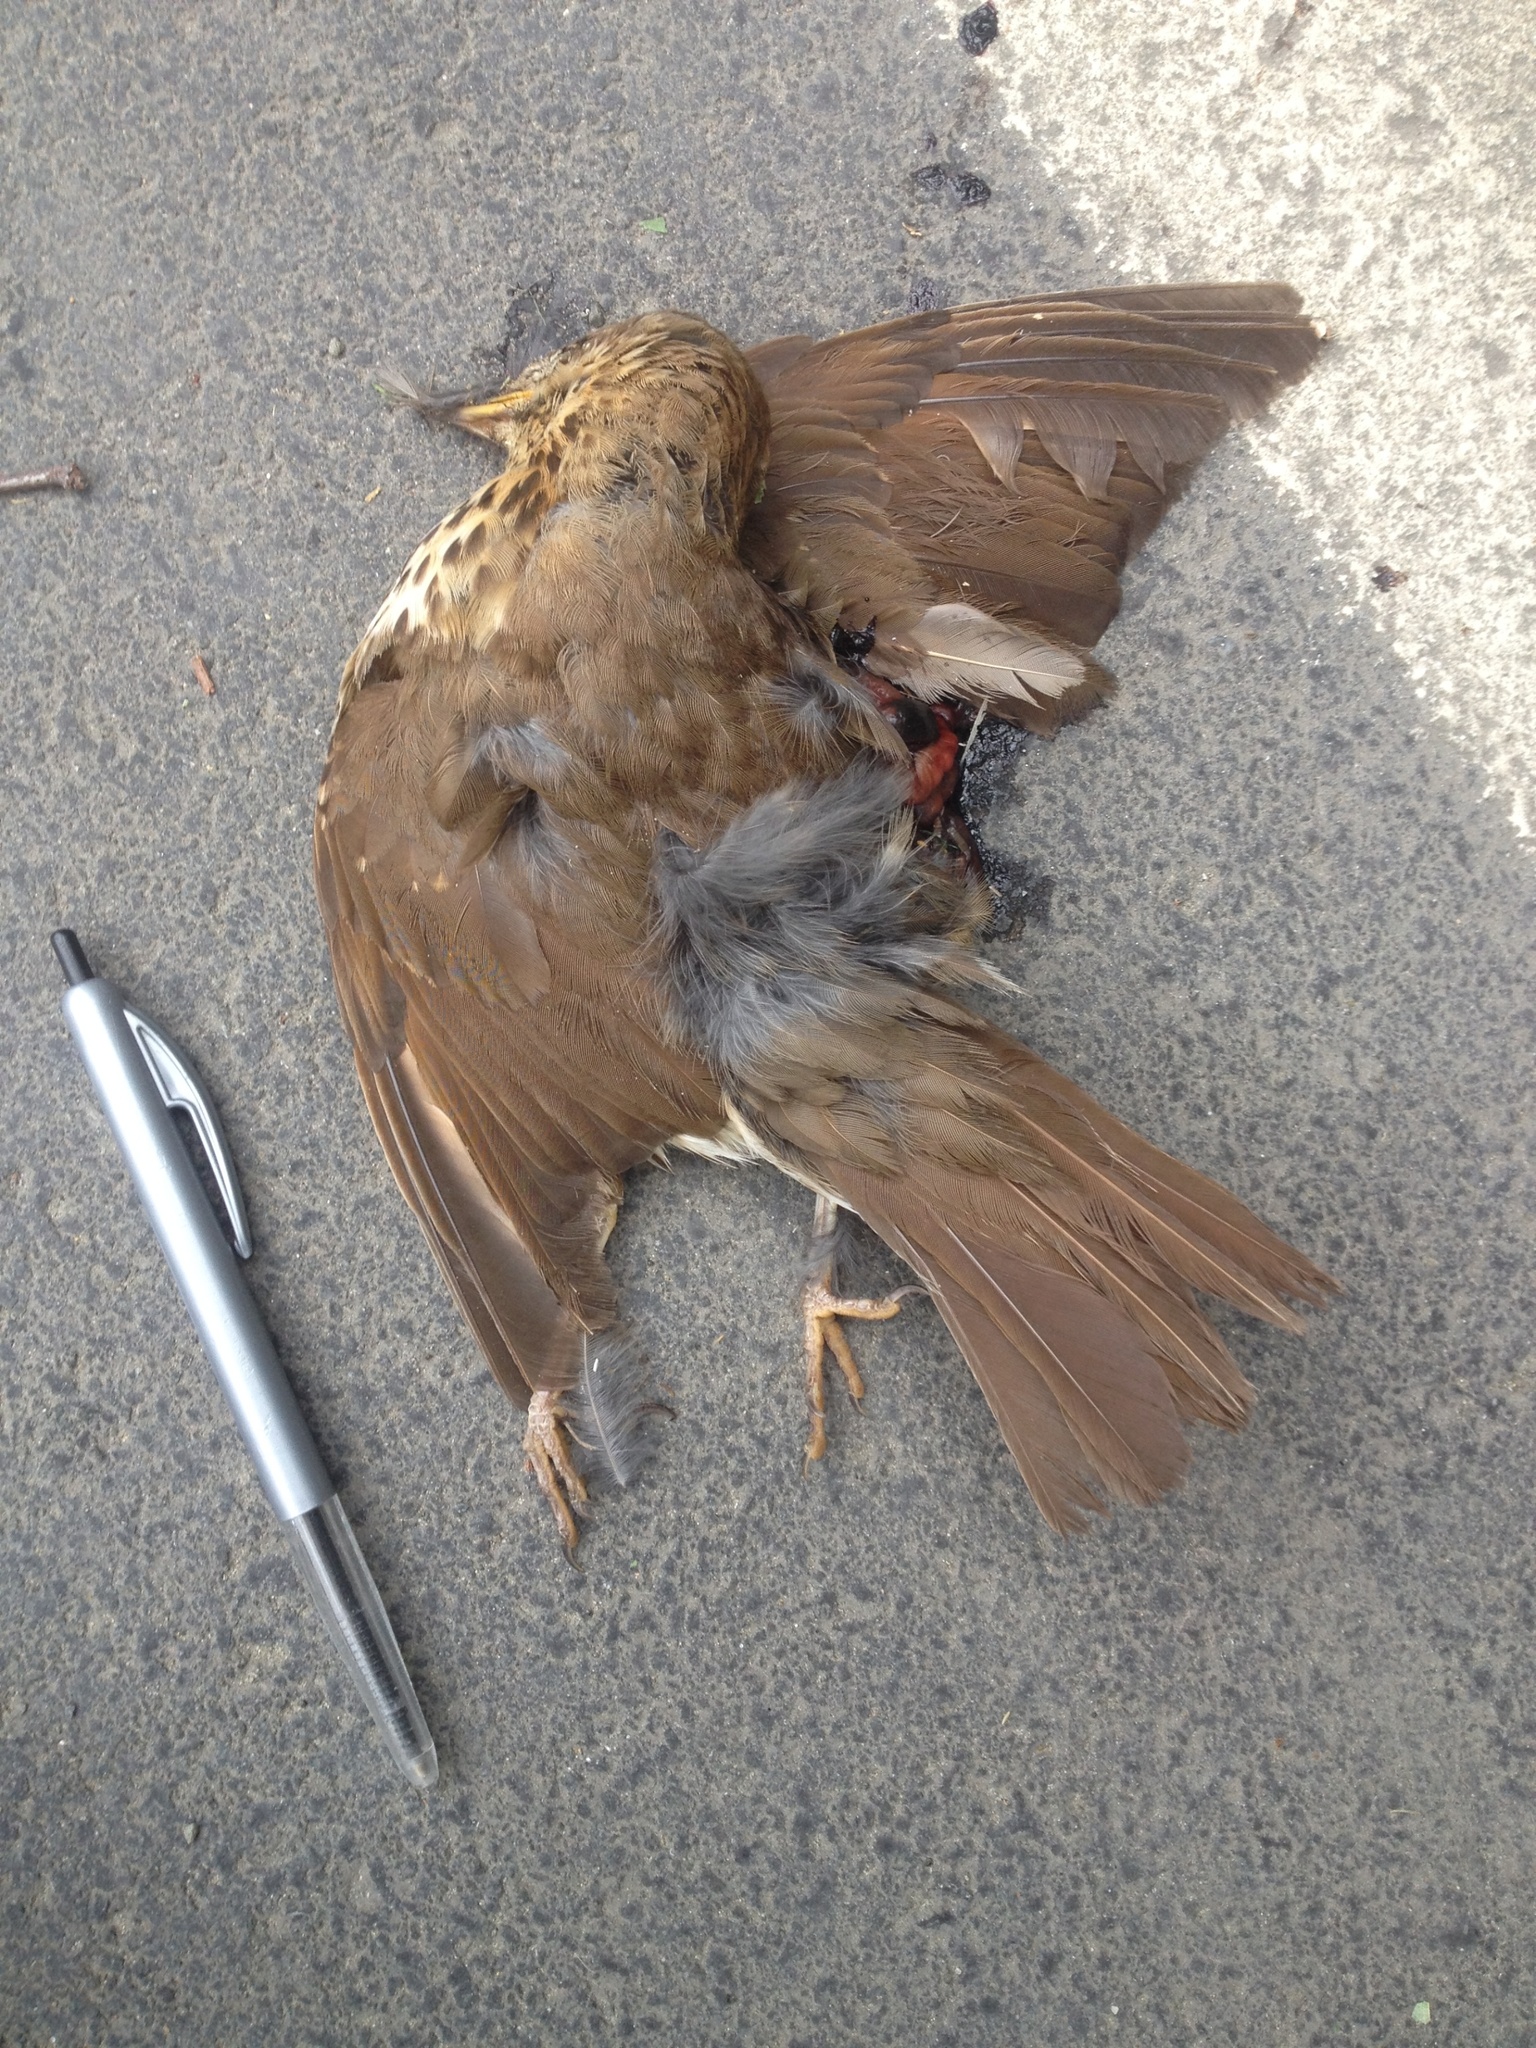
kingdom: Animalia
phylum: Chordata
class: Aves
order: Passeriformes
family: Turdidae
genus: Turdus
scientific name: Turdus philomelos
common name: Song thrush
